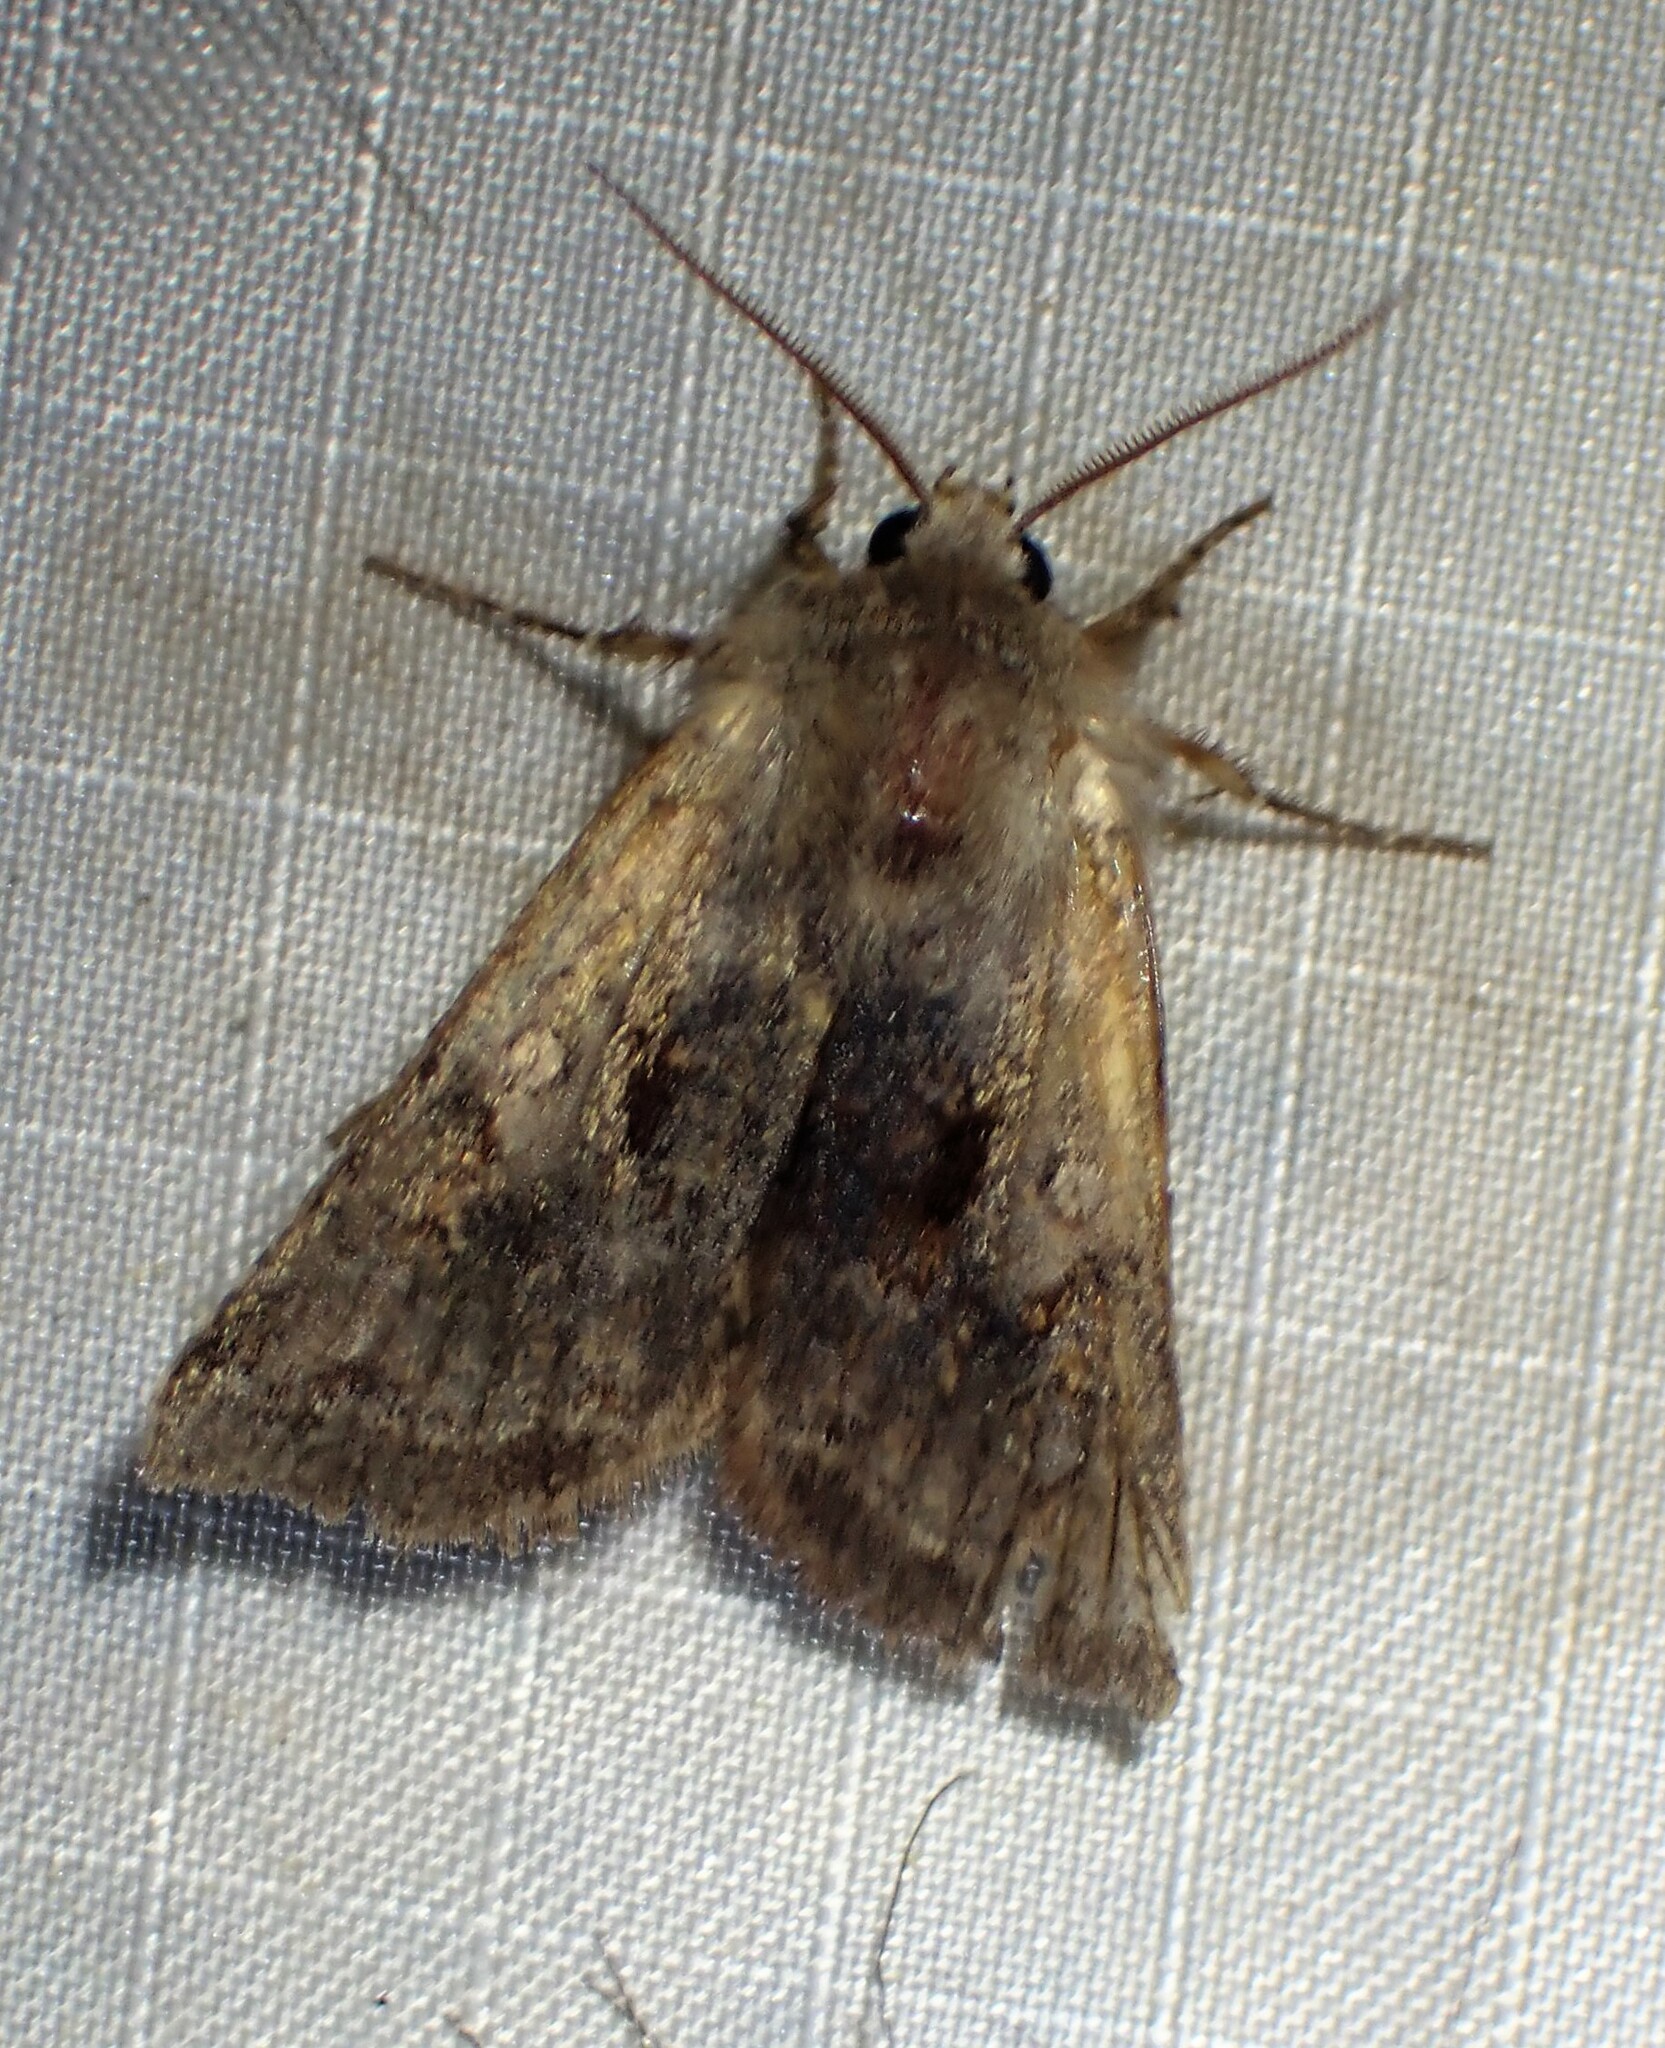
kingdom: Animalia
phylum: Arthropoda
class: Insecta
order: Lepidoptera
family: Noctuidae
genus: Cerastis
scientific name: Cerastis salicarum
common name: Willow dart
